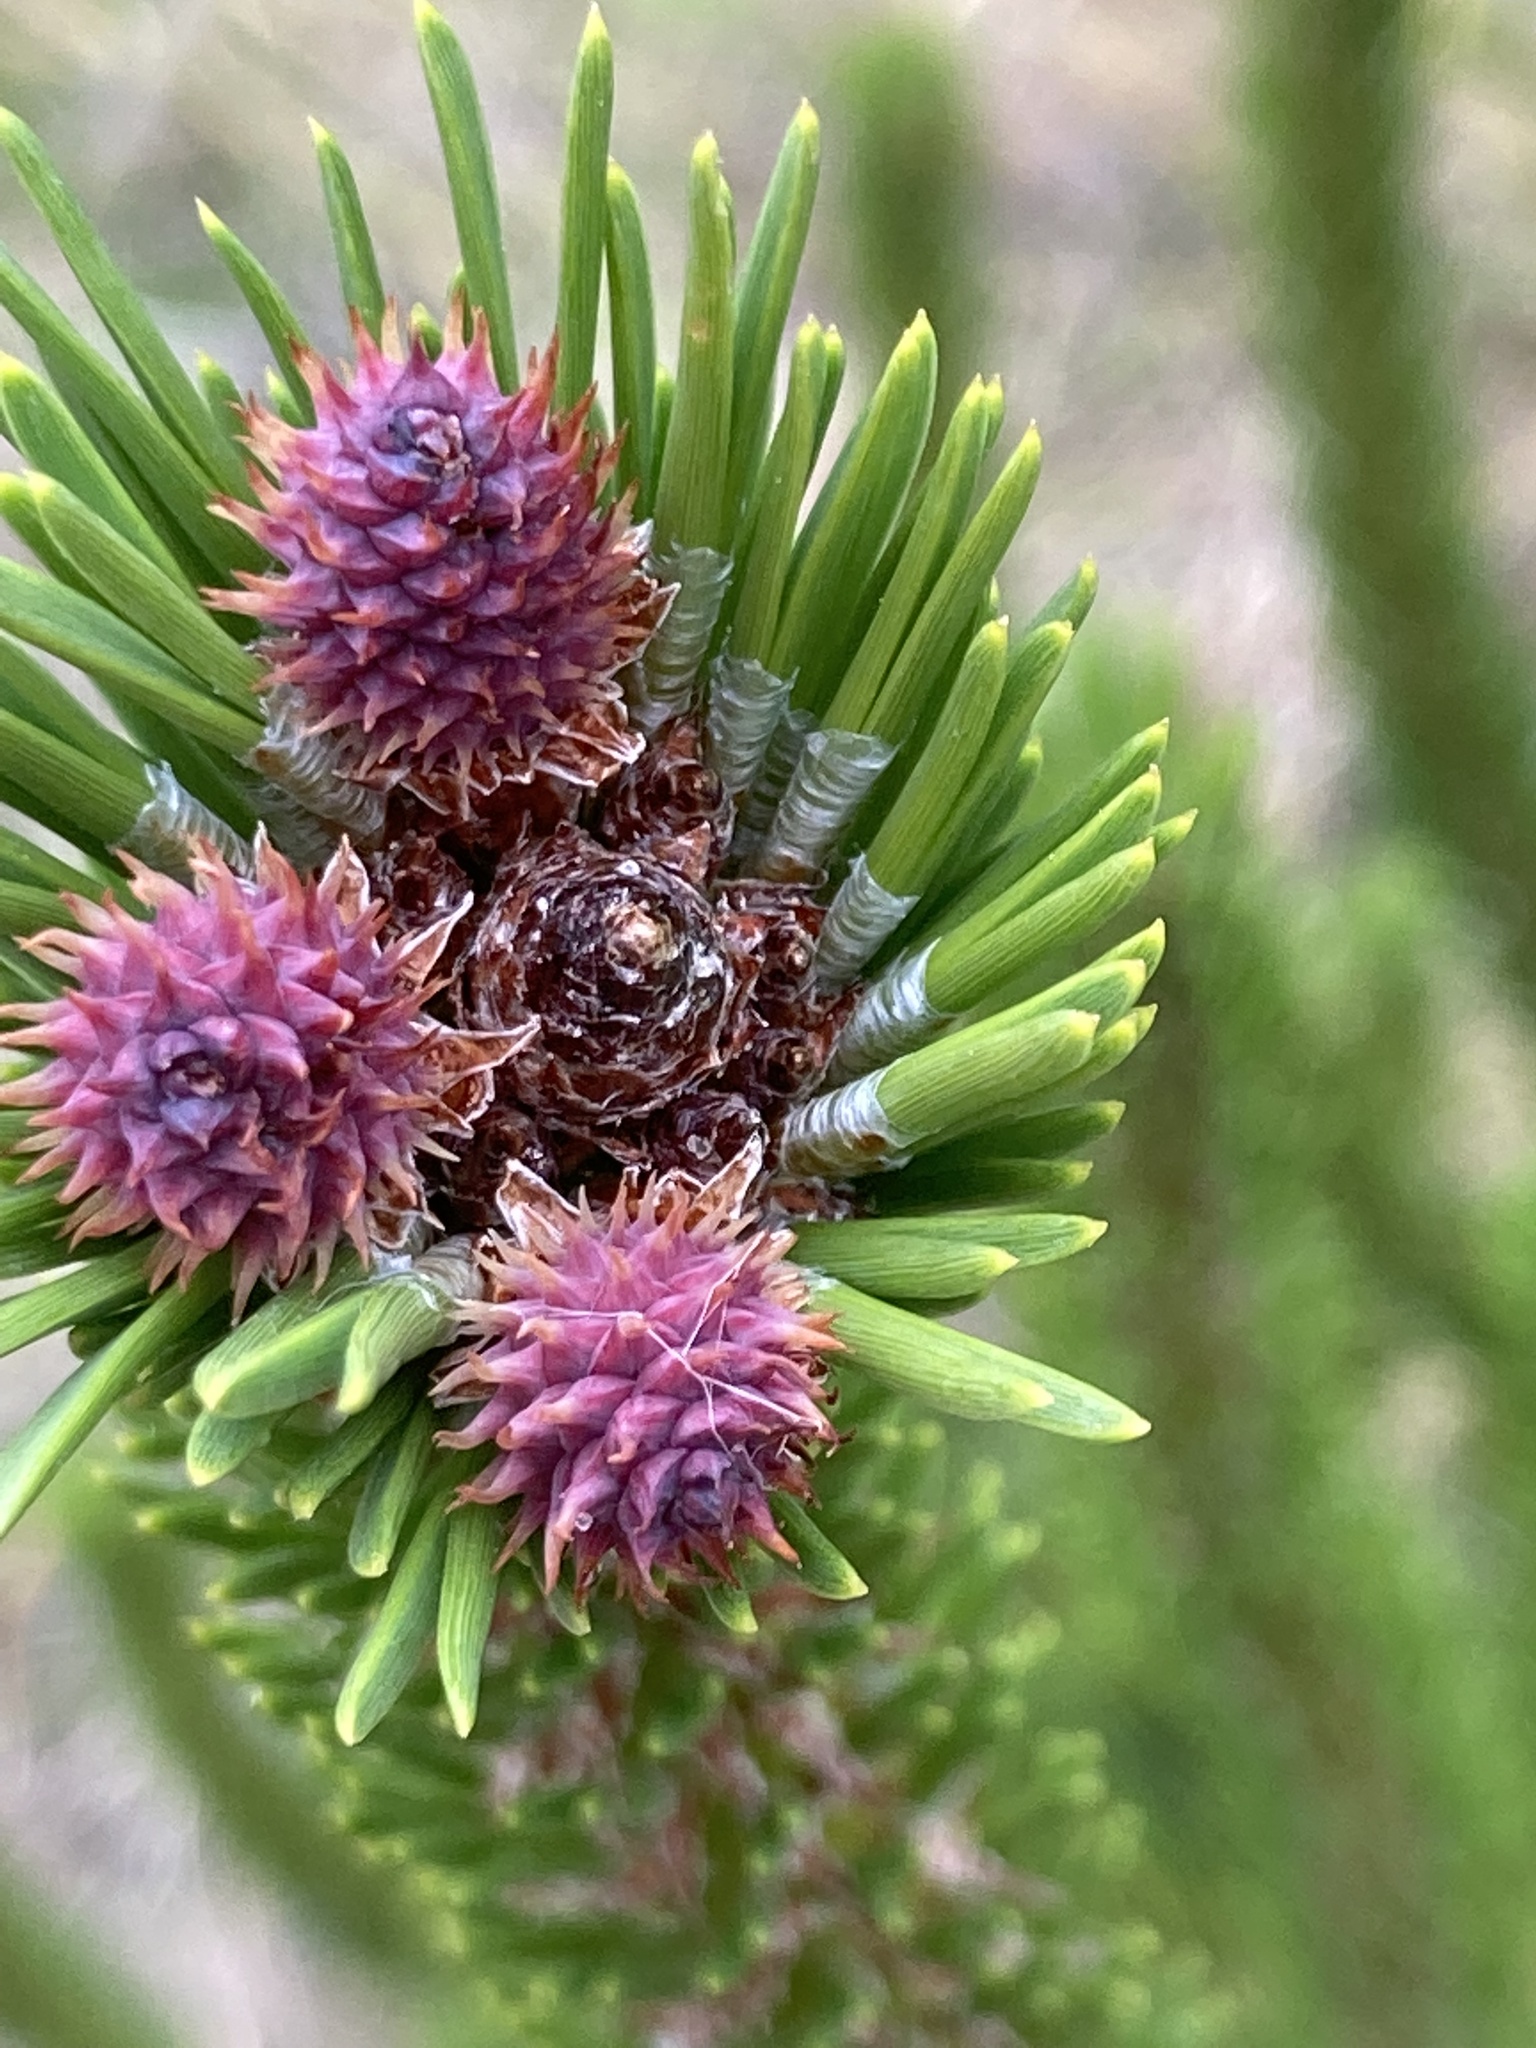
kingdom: Plantae
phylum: Tracheophyta
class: Pinopsida
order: Pinales
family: Pinaceae
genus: Pinus
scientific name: Pinus contorta
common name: Lodgepole pine
